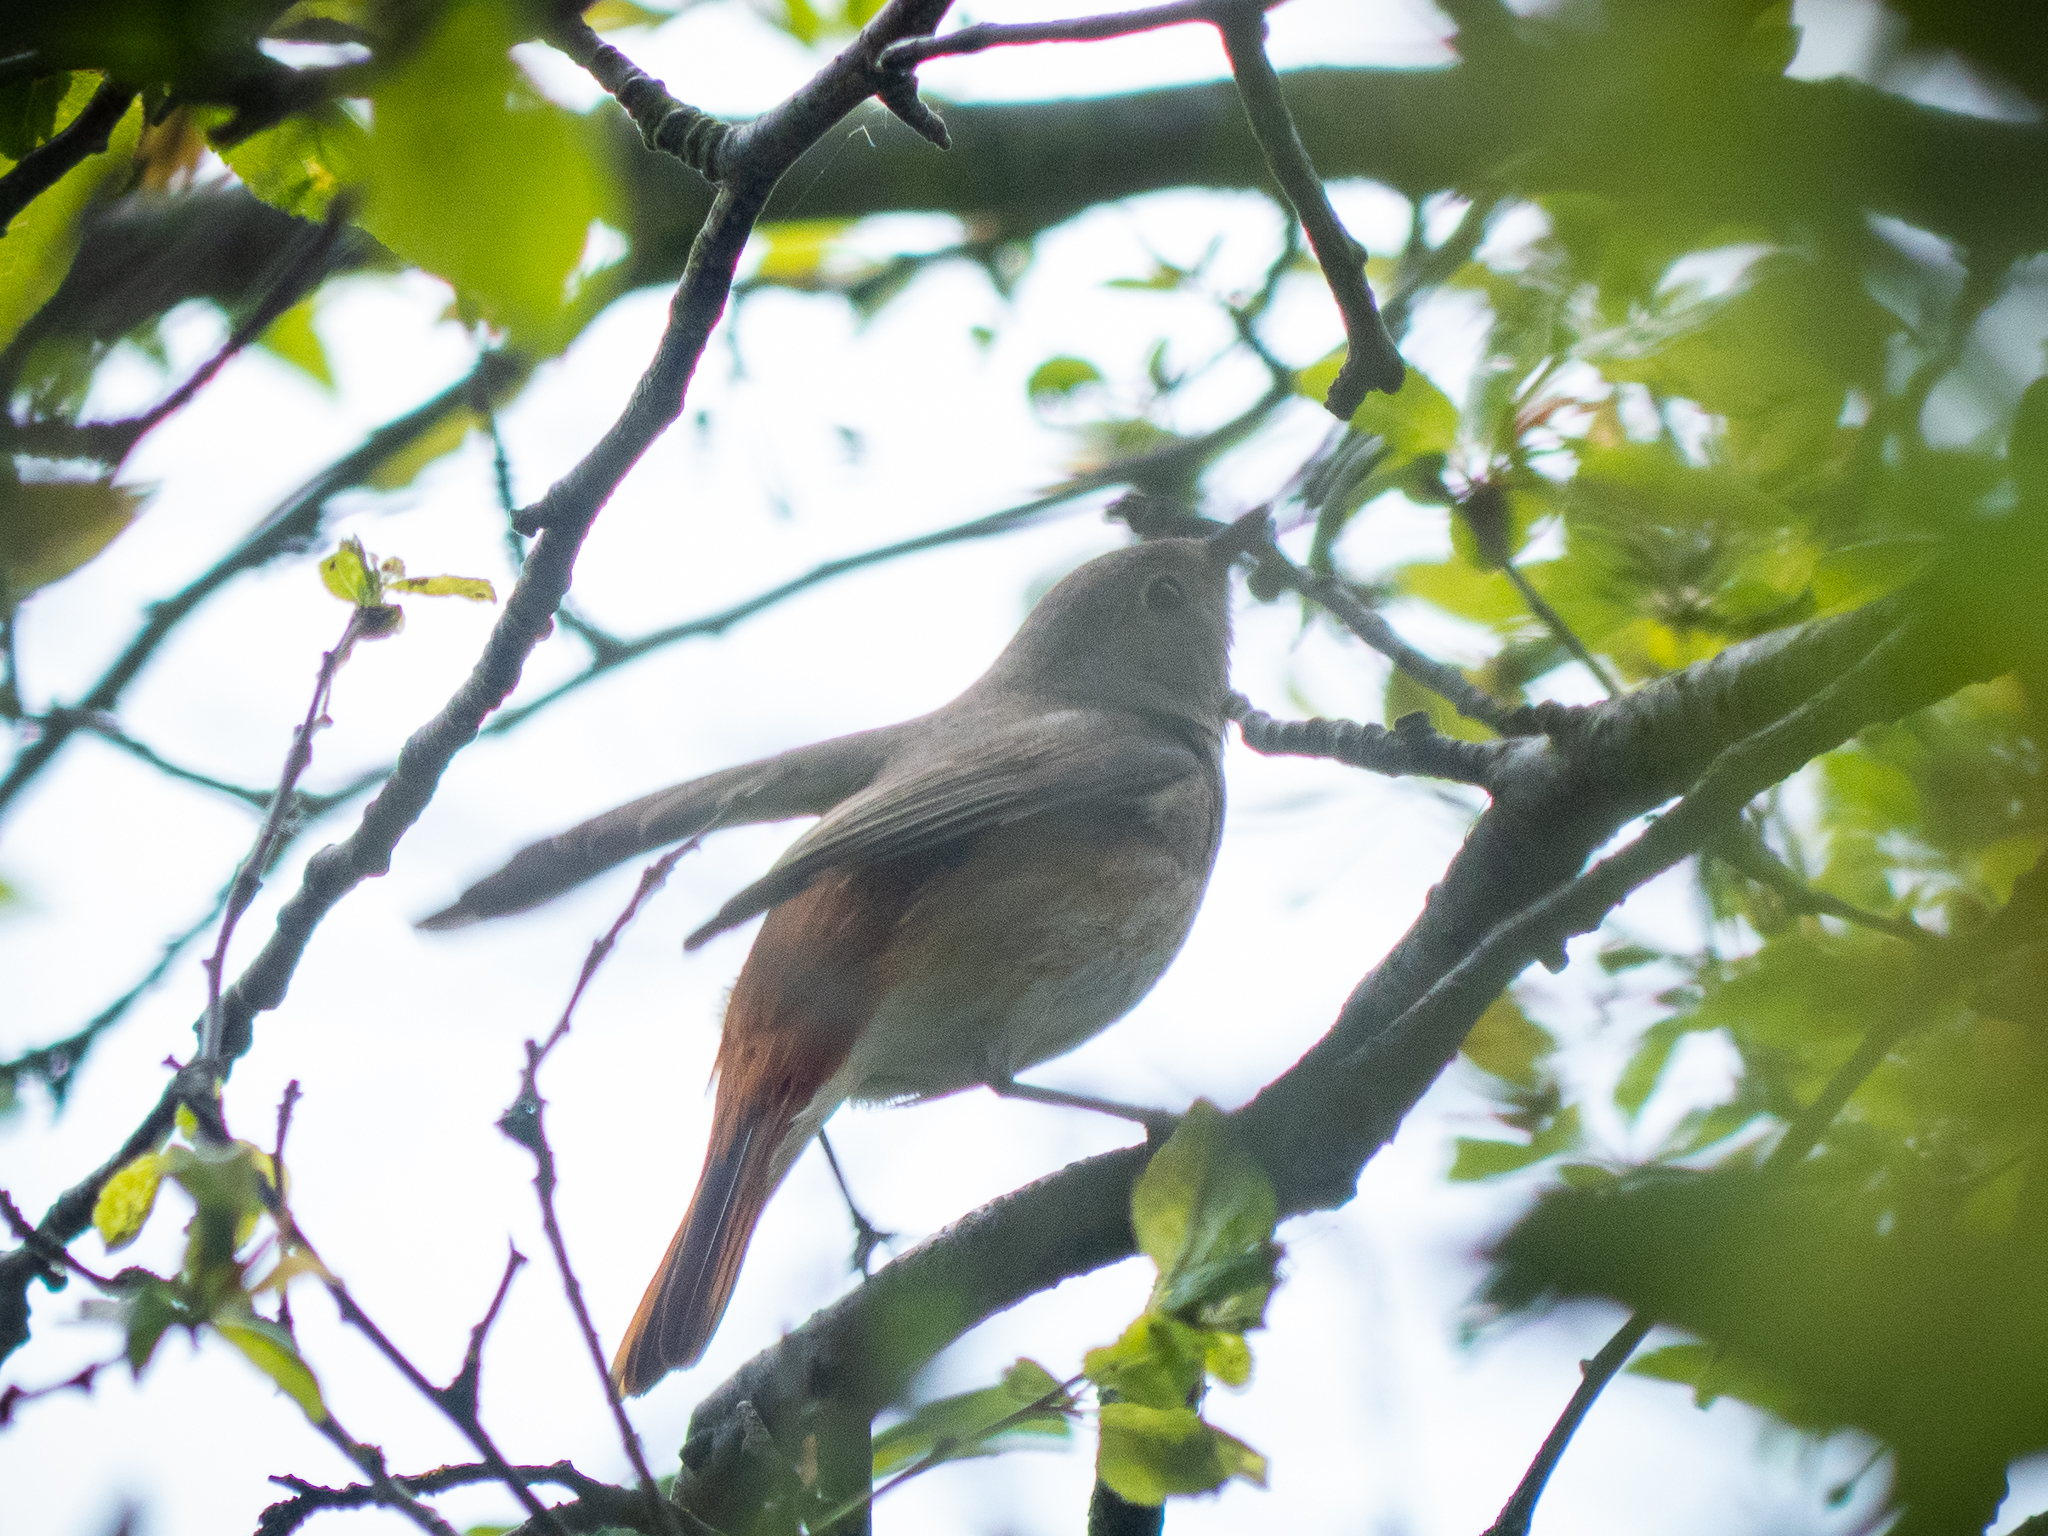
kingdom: Animalia
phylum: Chordata
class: Aves
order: Passeriformes
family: Muscicapidae
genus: Phoenicurus
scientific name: Phoenicurus phoenicurus
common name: Common redstart
